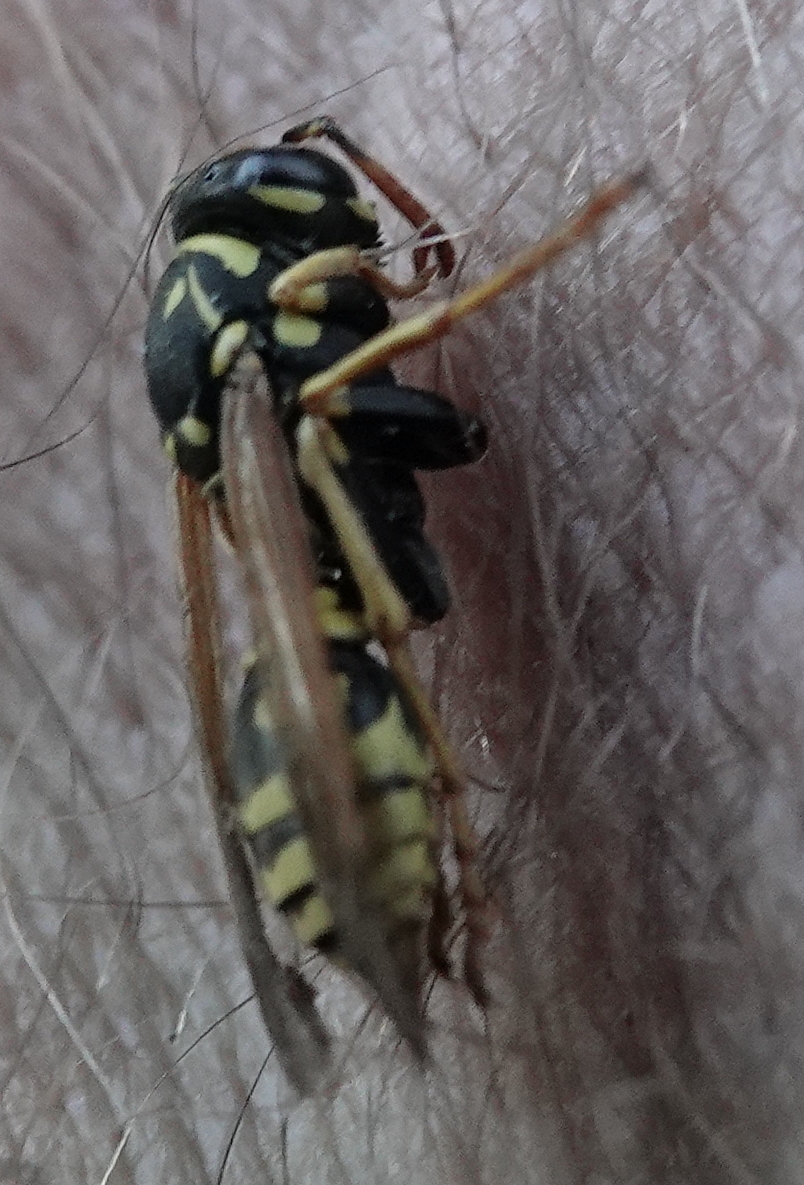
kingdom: Animalia
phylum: Arthropoda
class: Insecta
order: Hymenoptera
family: Eumenidae
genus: Polistes
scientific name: Polistes dominula
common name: Paper wasp
